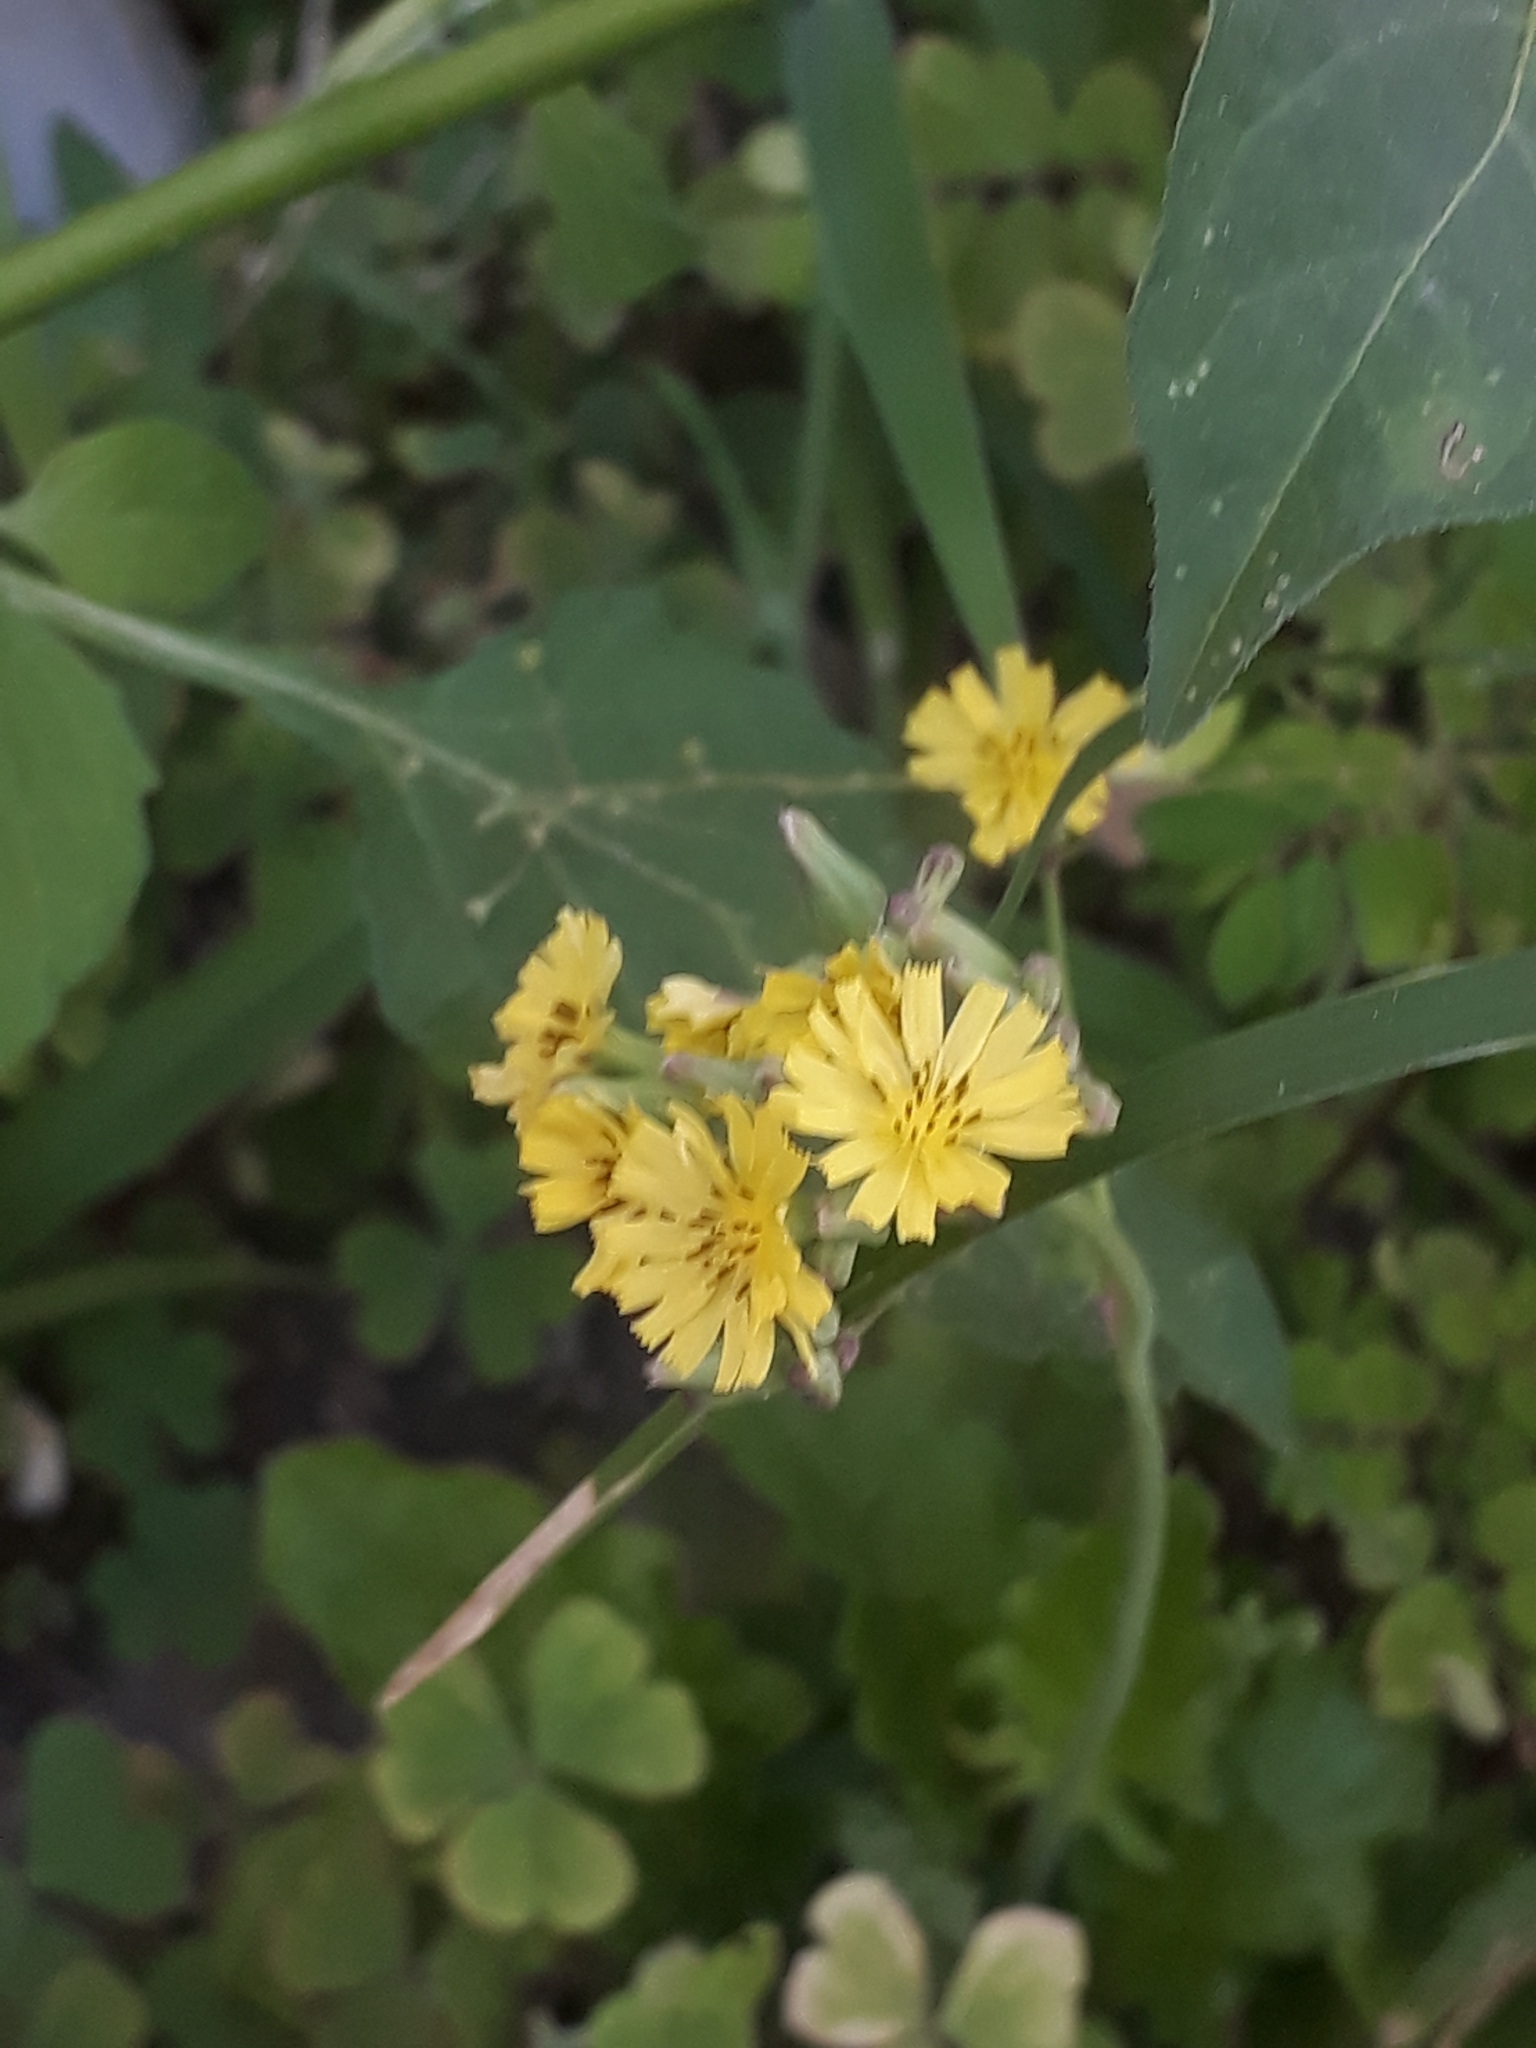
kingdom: Plantae
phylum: Tracheophyta
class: Magnoliopsida
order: Asterales
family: Asteraceae
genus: Youngia
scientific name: Youngia japonica
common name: Oriental false hawksbeard
